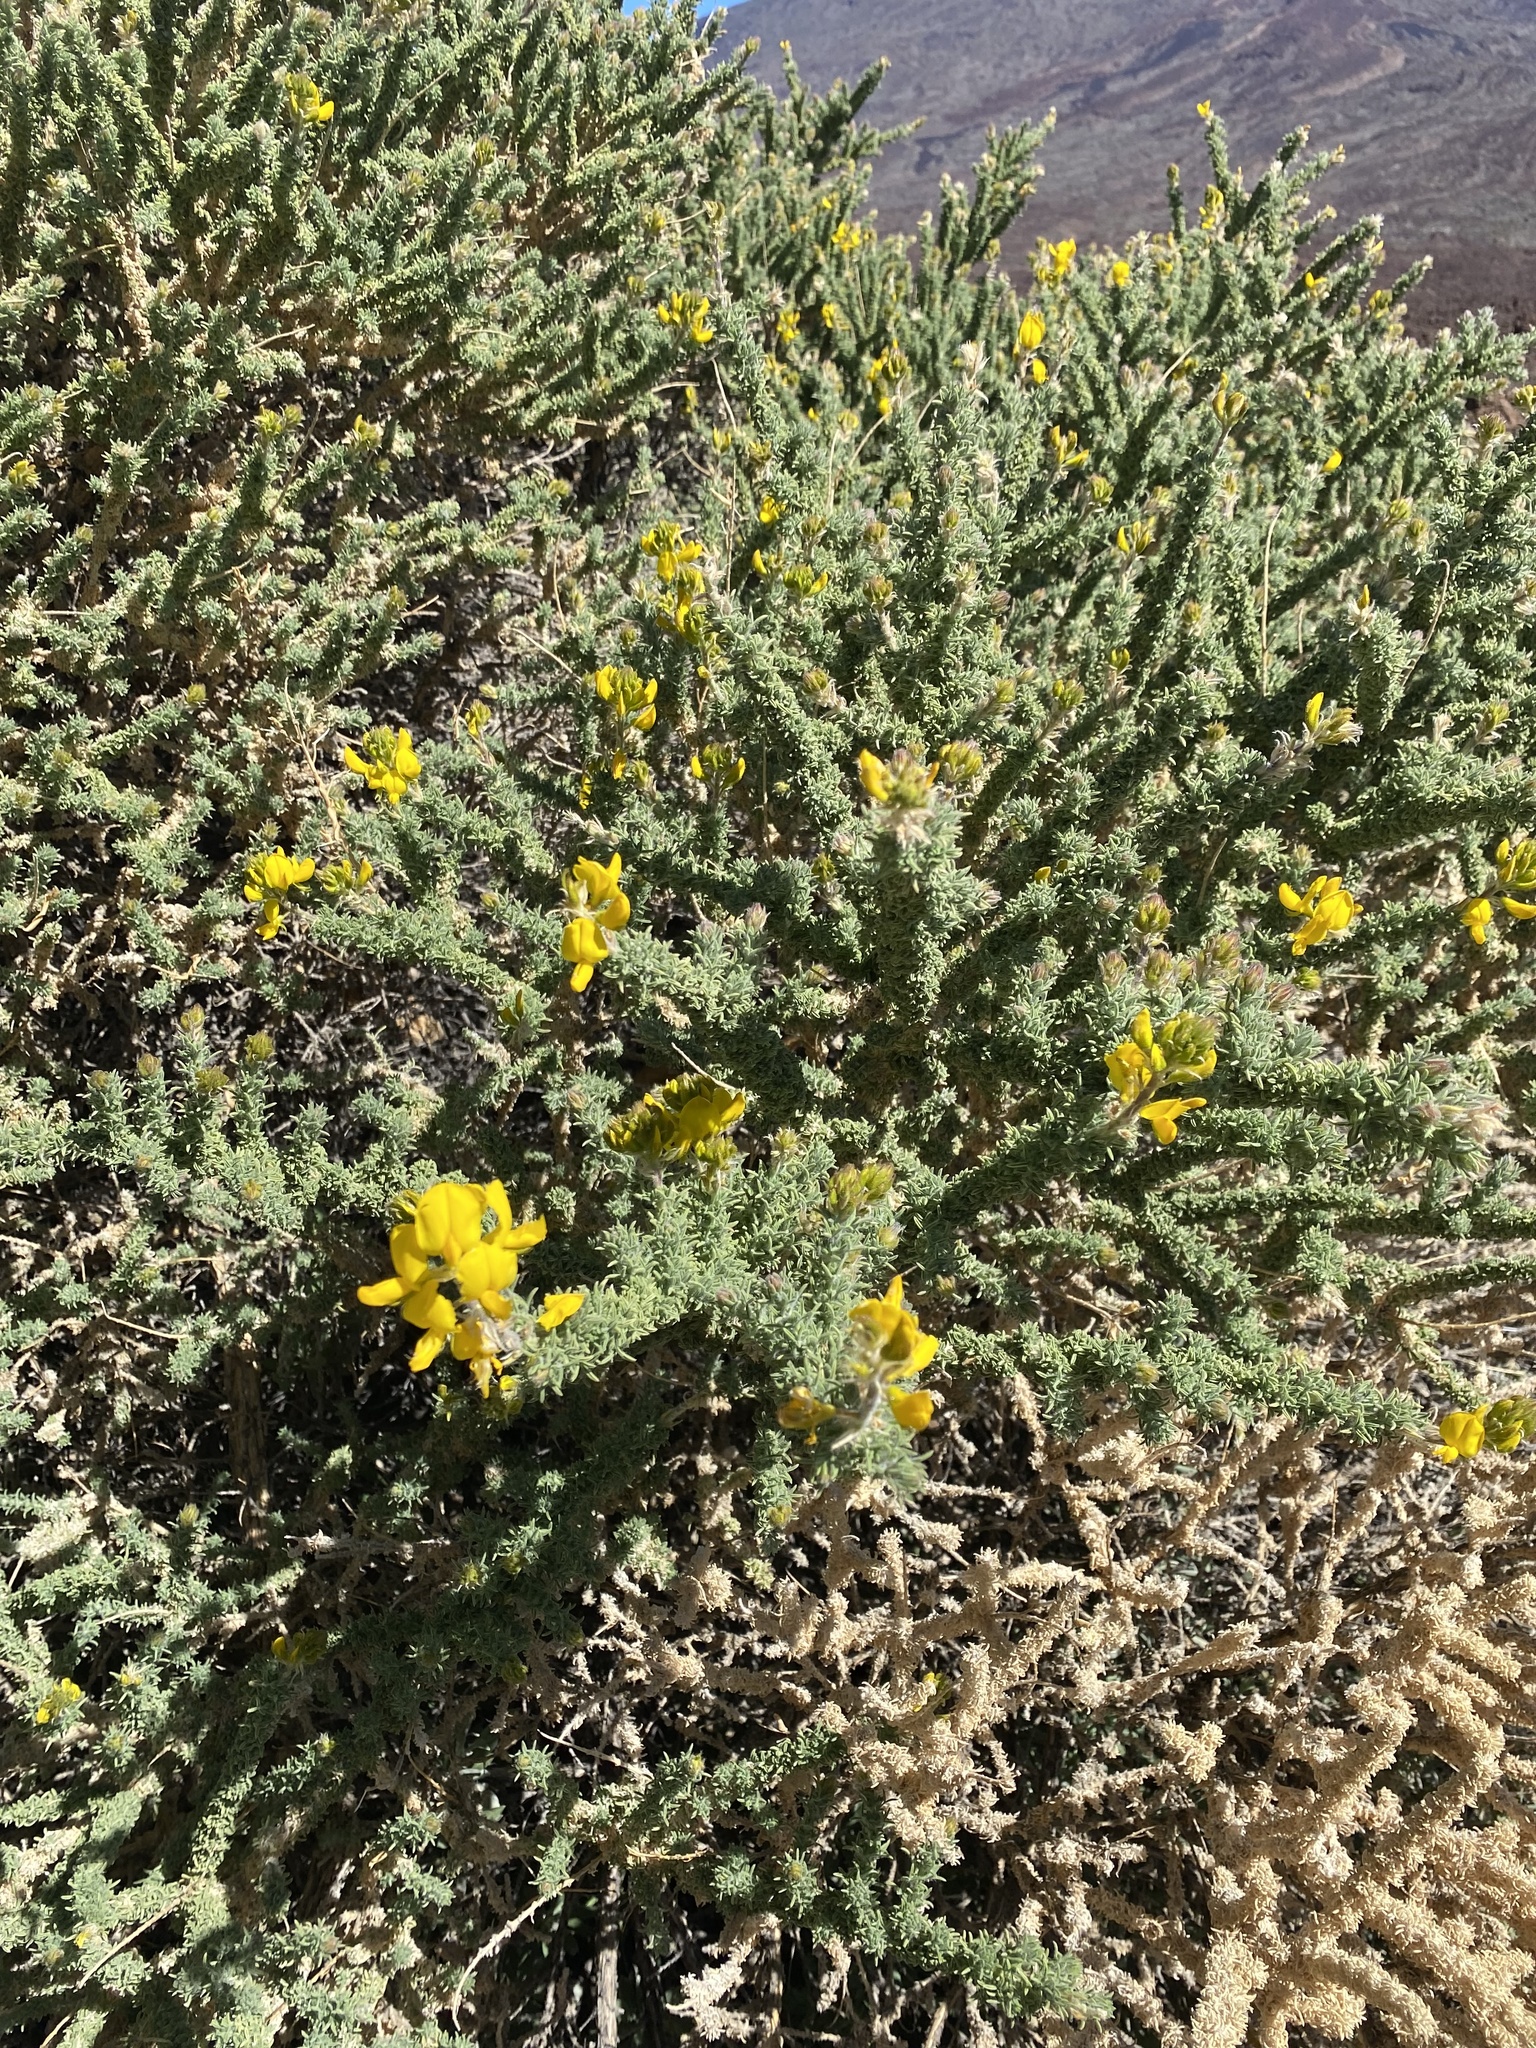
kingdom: Plantae
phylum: Tracheophyta
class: Magnoliopsida
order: Fabales
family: Fabaceae
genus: Adenocarpus
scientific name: Adenocarpus viscosus
